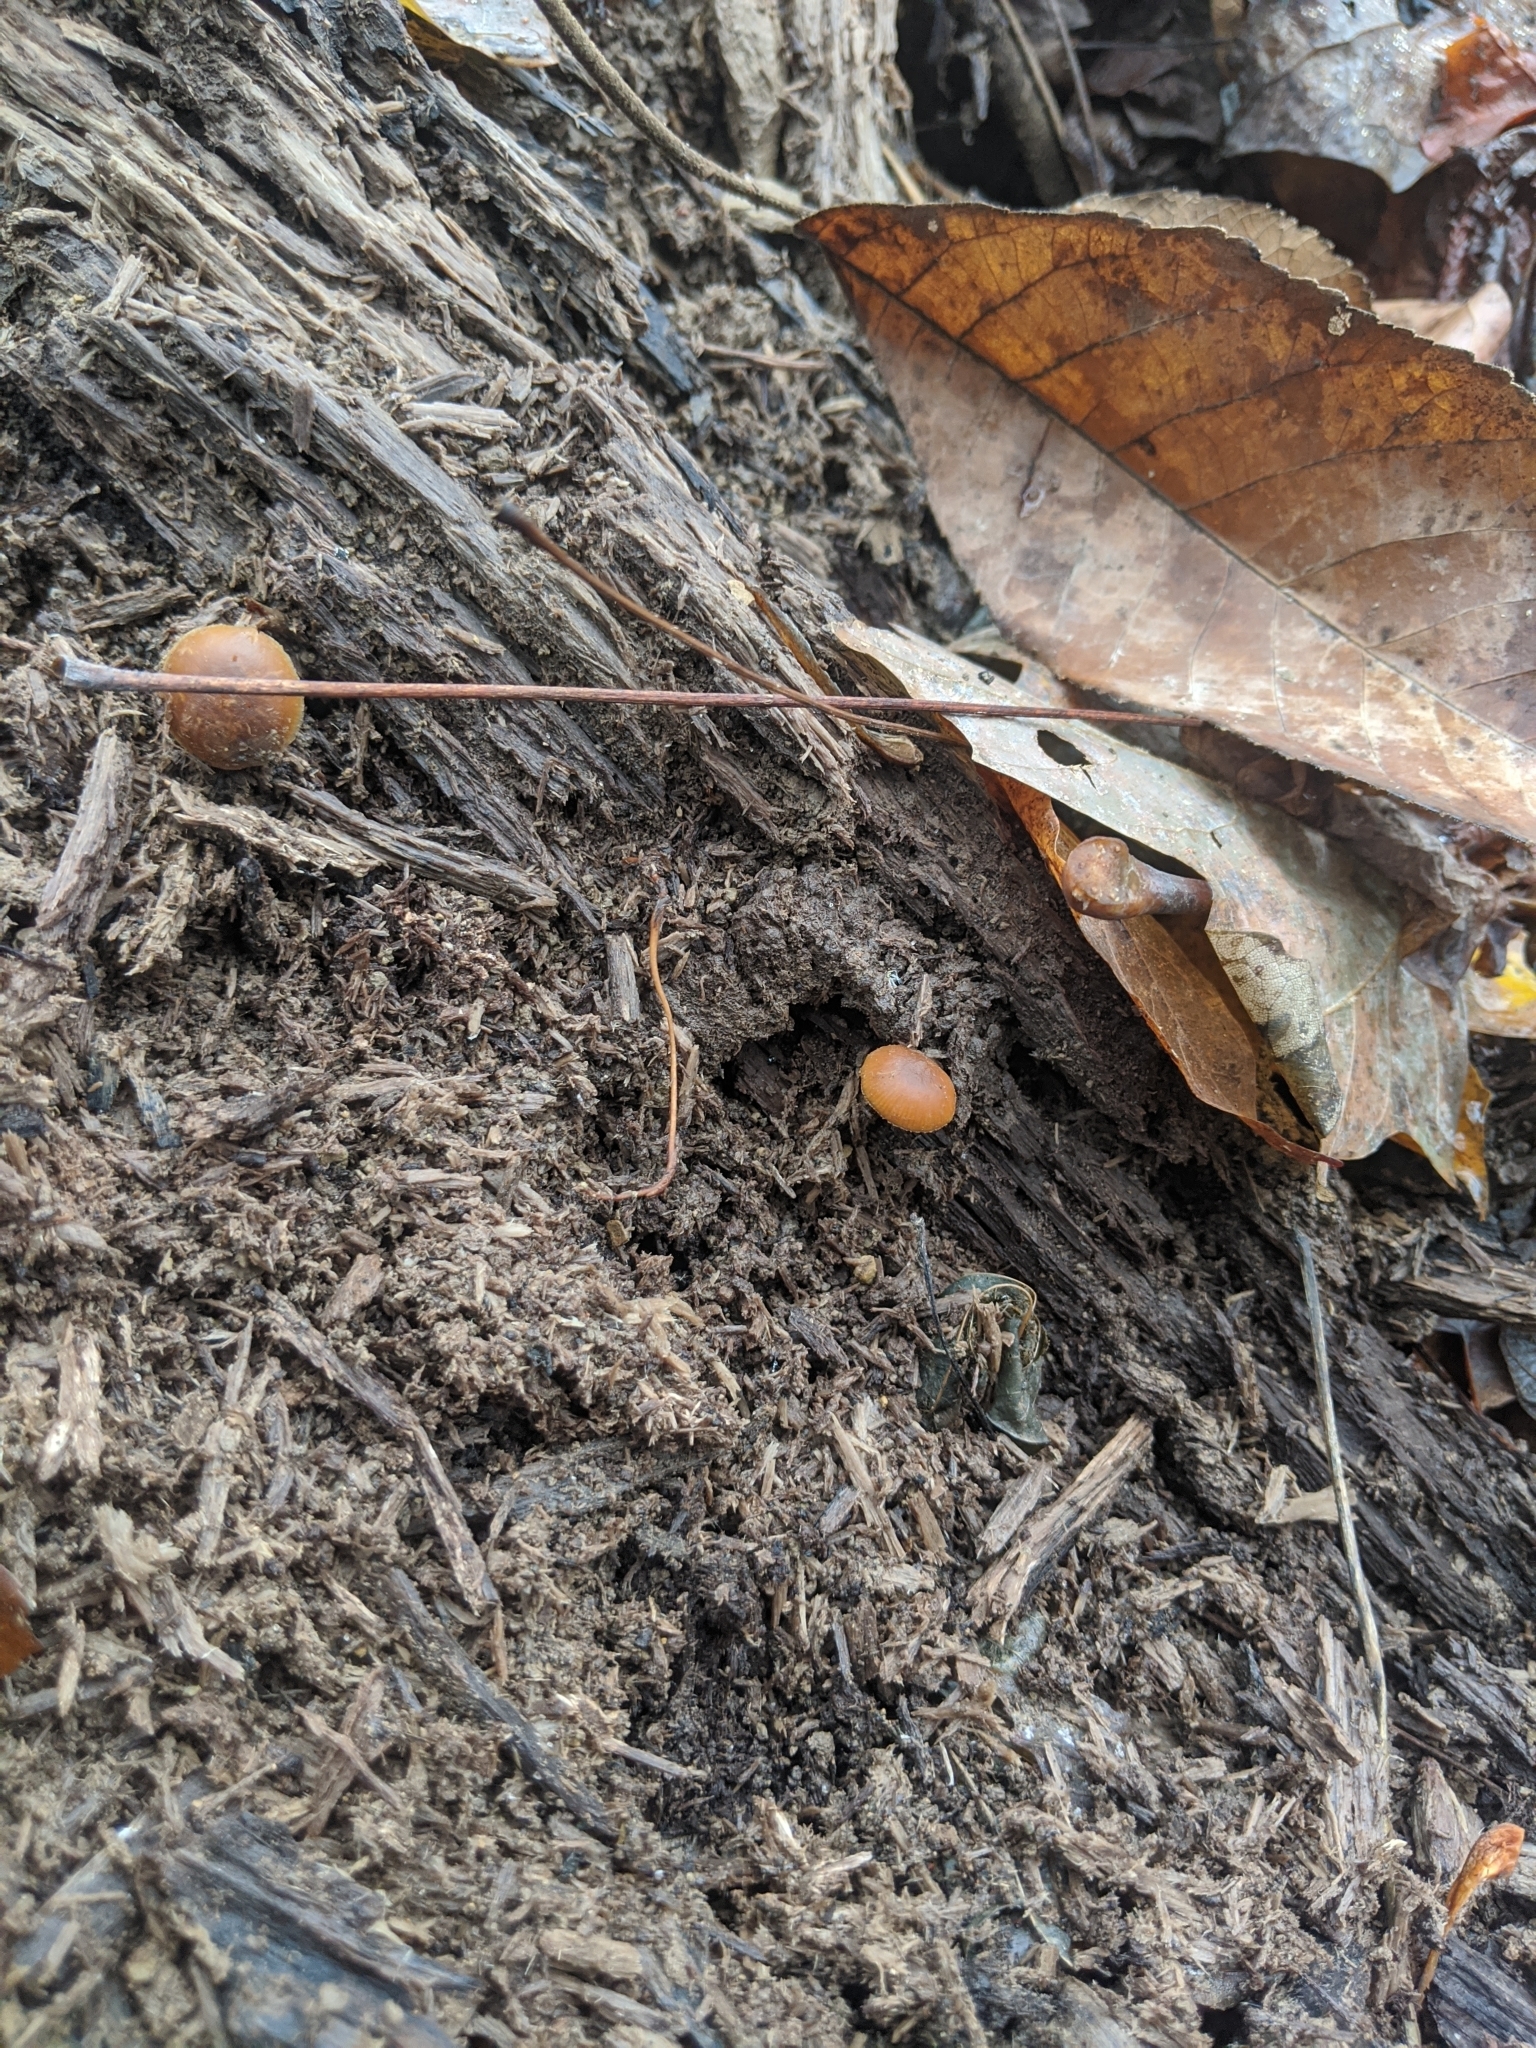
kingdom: Fungi
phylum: Basidiomycota
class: Agaricomycetes
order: Agaricales
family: Hymenogastraceae
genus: Galerina
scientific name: Galerina marginata
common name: Funeral bell
